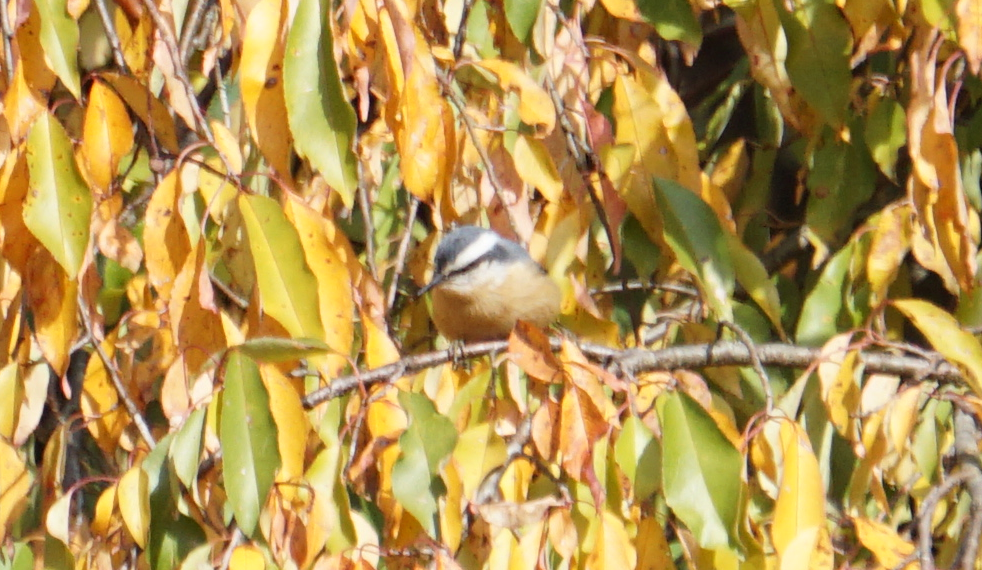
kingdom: Animalia
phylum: Chordata
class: Aves
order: Passeriformes
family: Sittidae
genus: Sitta
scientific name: Sitta canadensis
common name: Red-breasted nuthatch
